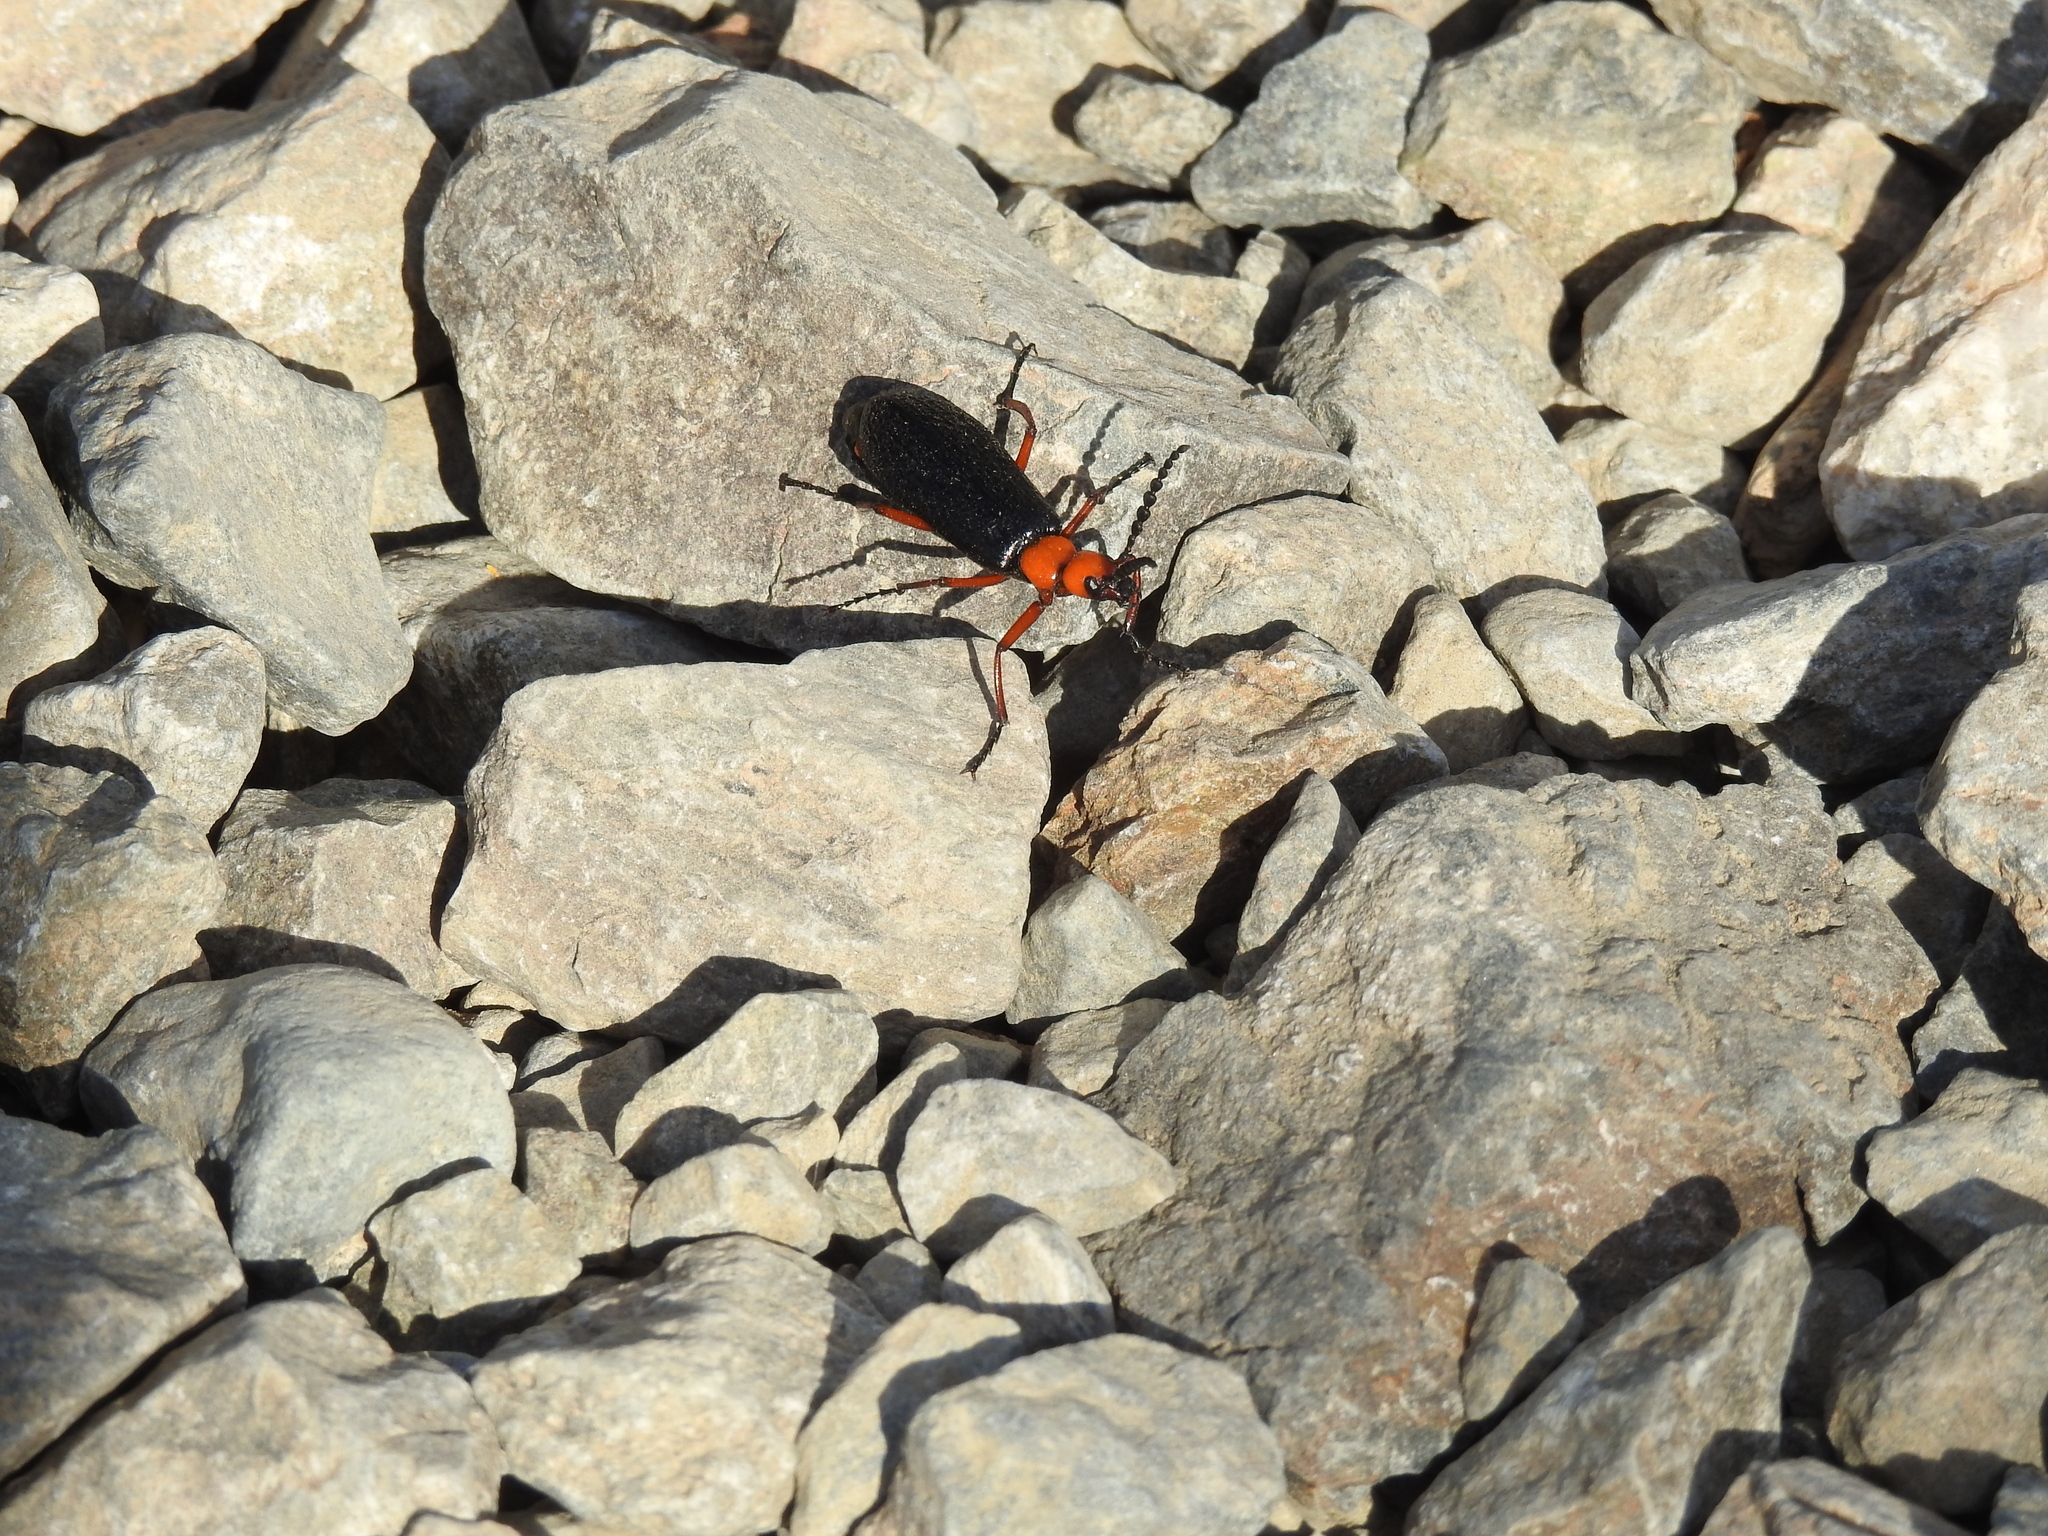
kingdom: Animalia
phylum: Arthropoda
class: Insecta
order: Coleoptera
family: Meloidae
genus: Lytta
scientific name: Lytta magister
